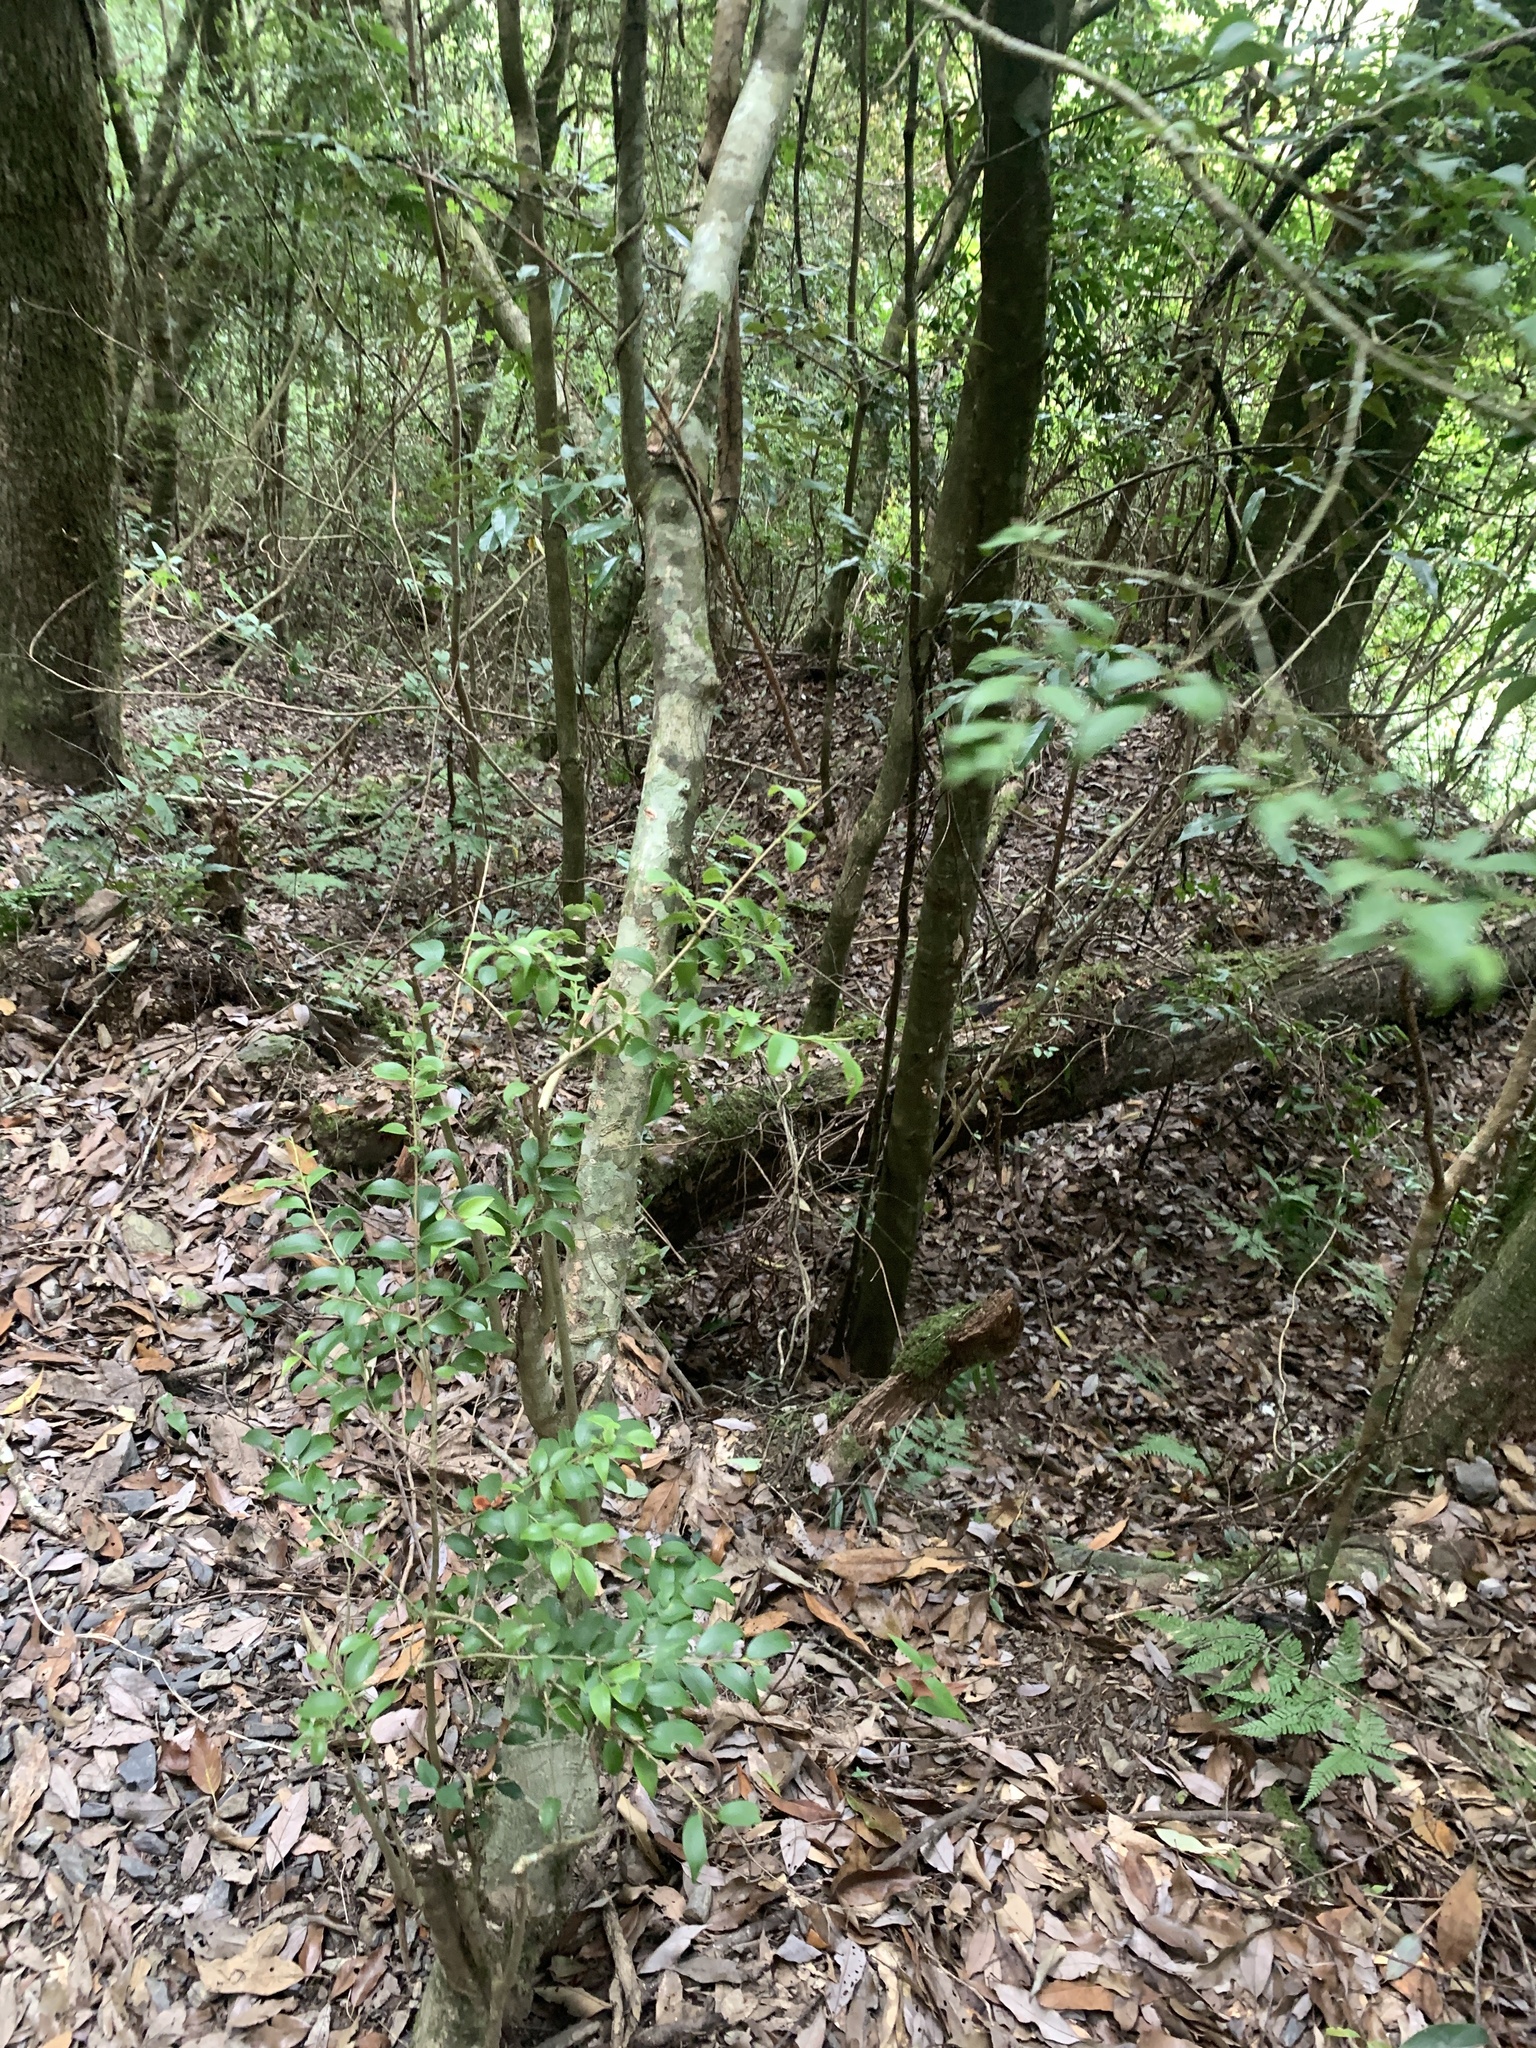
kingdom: Plantae
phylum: Tracheophyta
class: Magnoliopsida
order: Ericales
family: Pentaphylacaceae
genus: Cleyera
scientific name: Cleyera longicarpa
